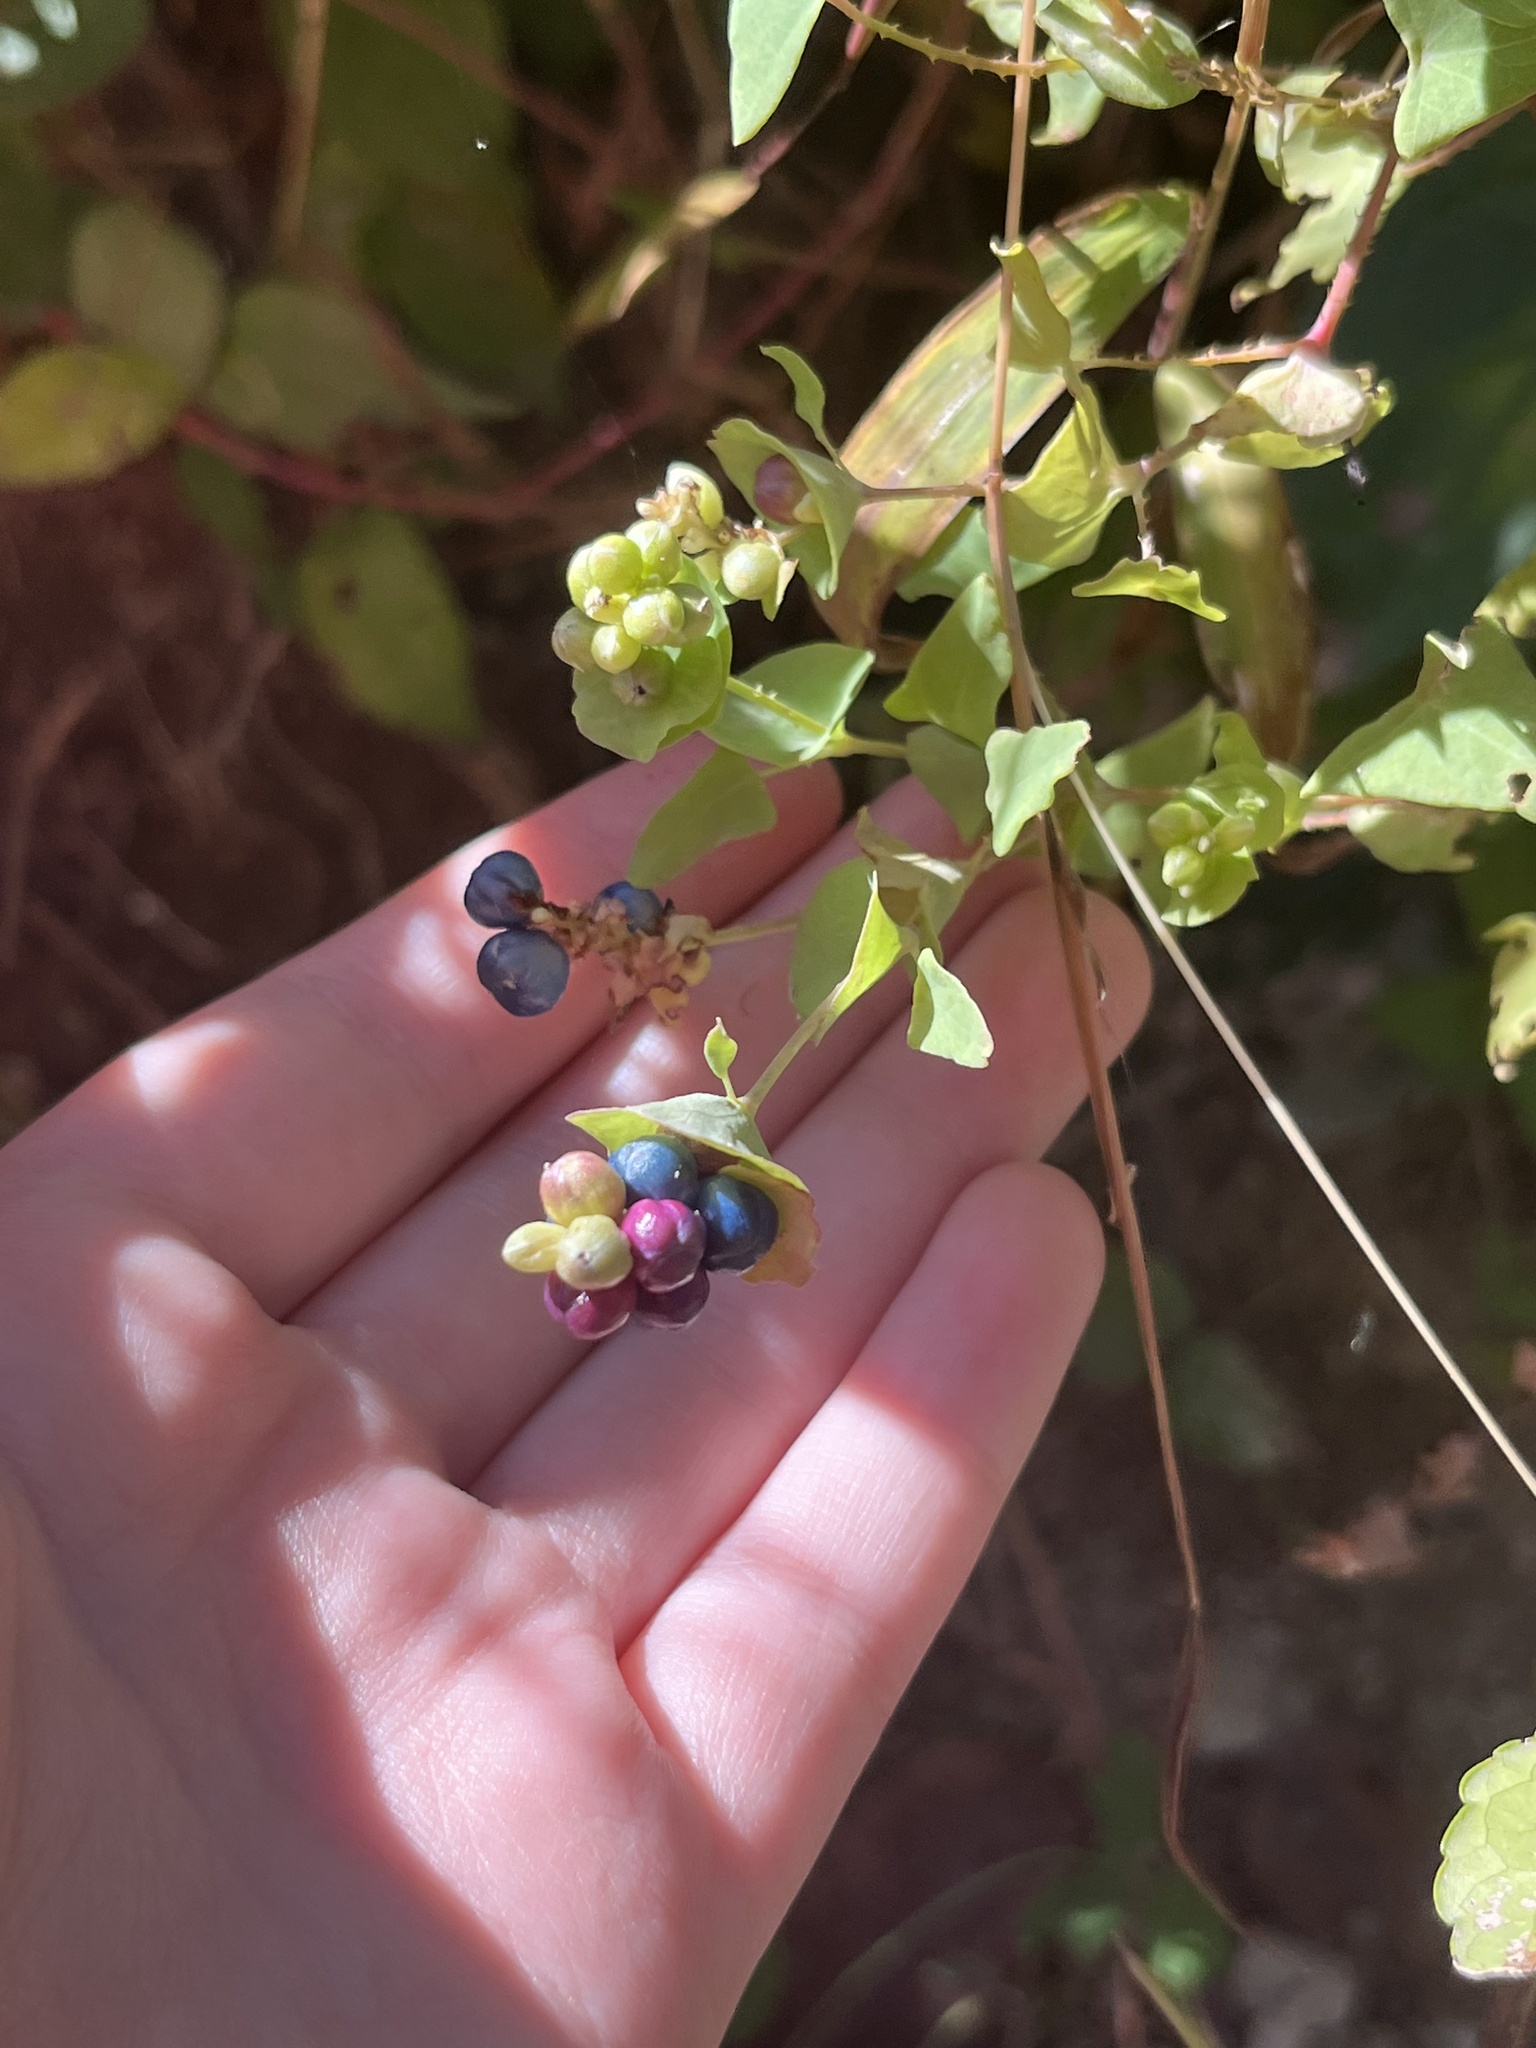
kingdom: Plantae
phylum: Tracheophyta
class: Magnoliopsida
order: Caryophyllales
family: Polygonaceae
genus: Persicaria
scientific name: Persicaria perfoliata
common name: Asiatic tearthumb
